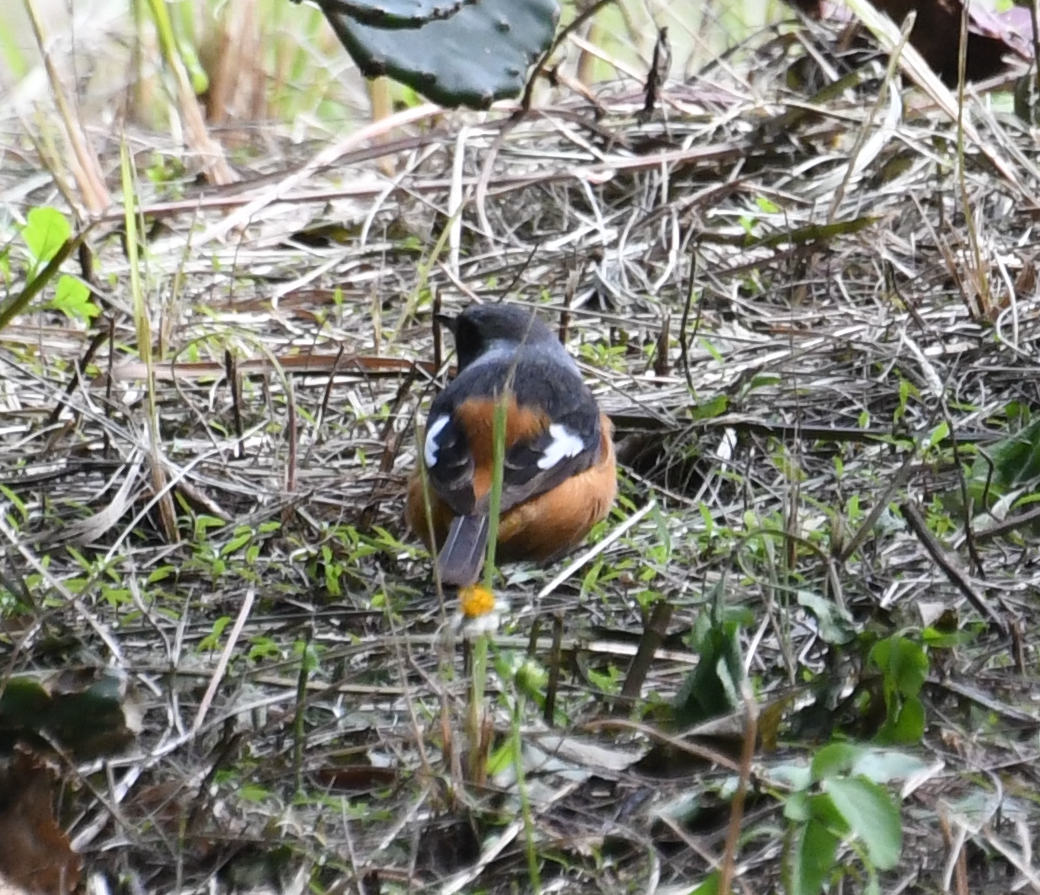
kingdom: Animalia
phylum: Chordata
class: Aves
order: Passeriformes
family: Muscicapidae
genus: Phoenicurus
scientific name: Phoenicurus auroreus
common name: Daurian redstart
